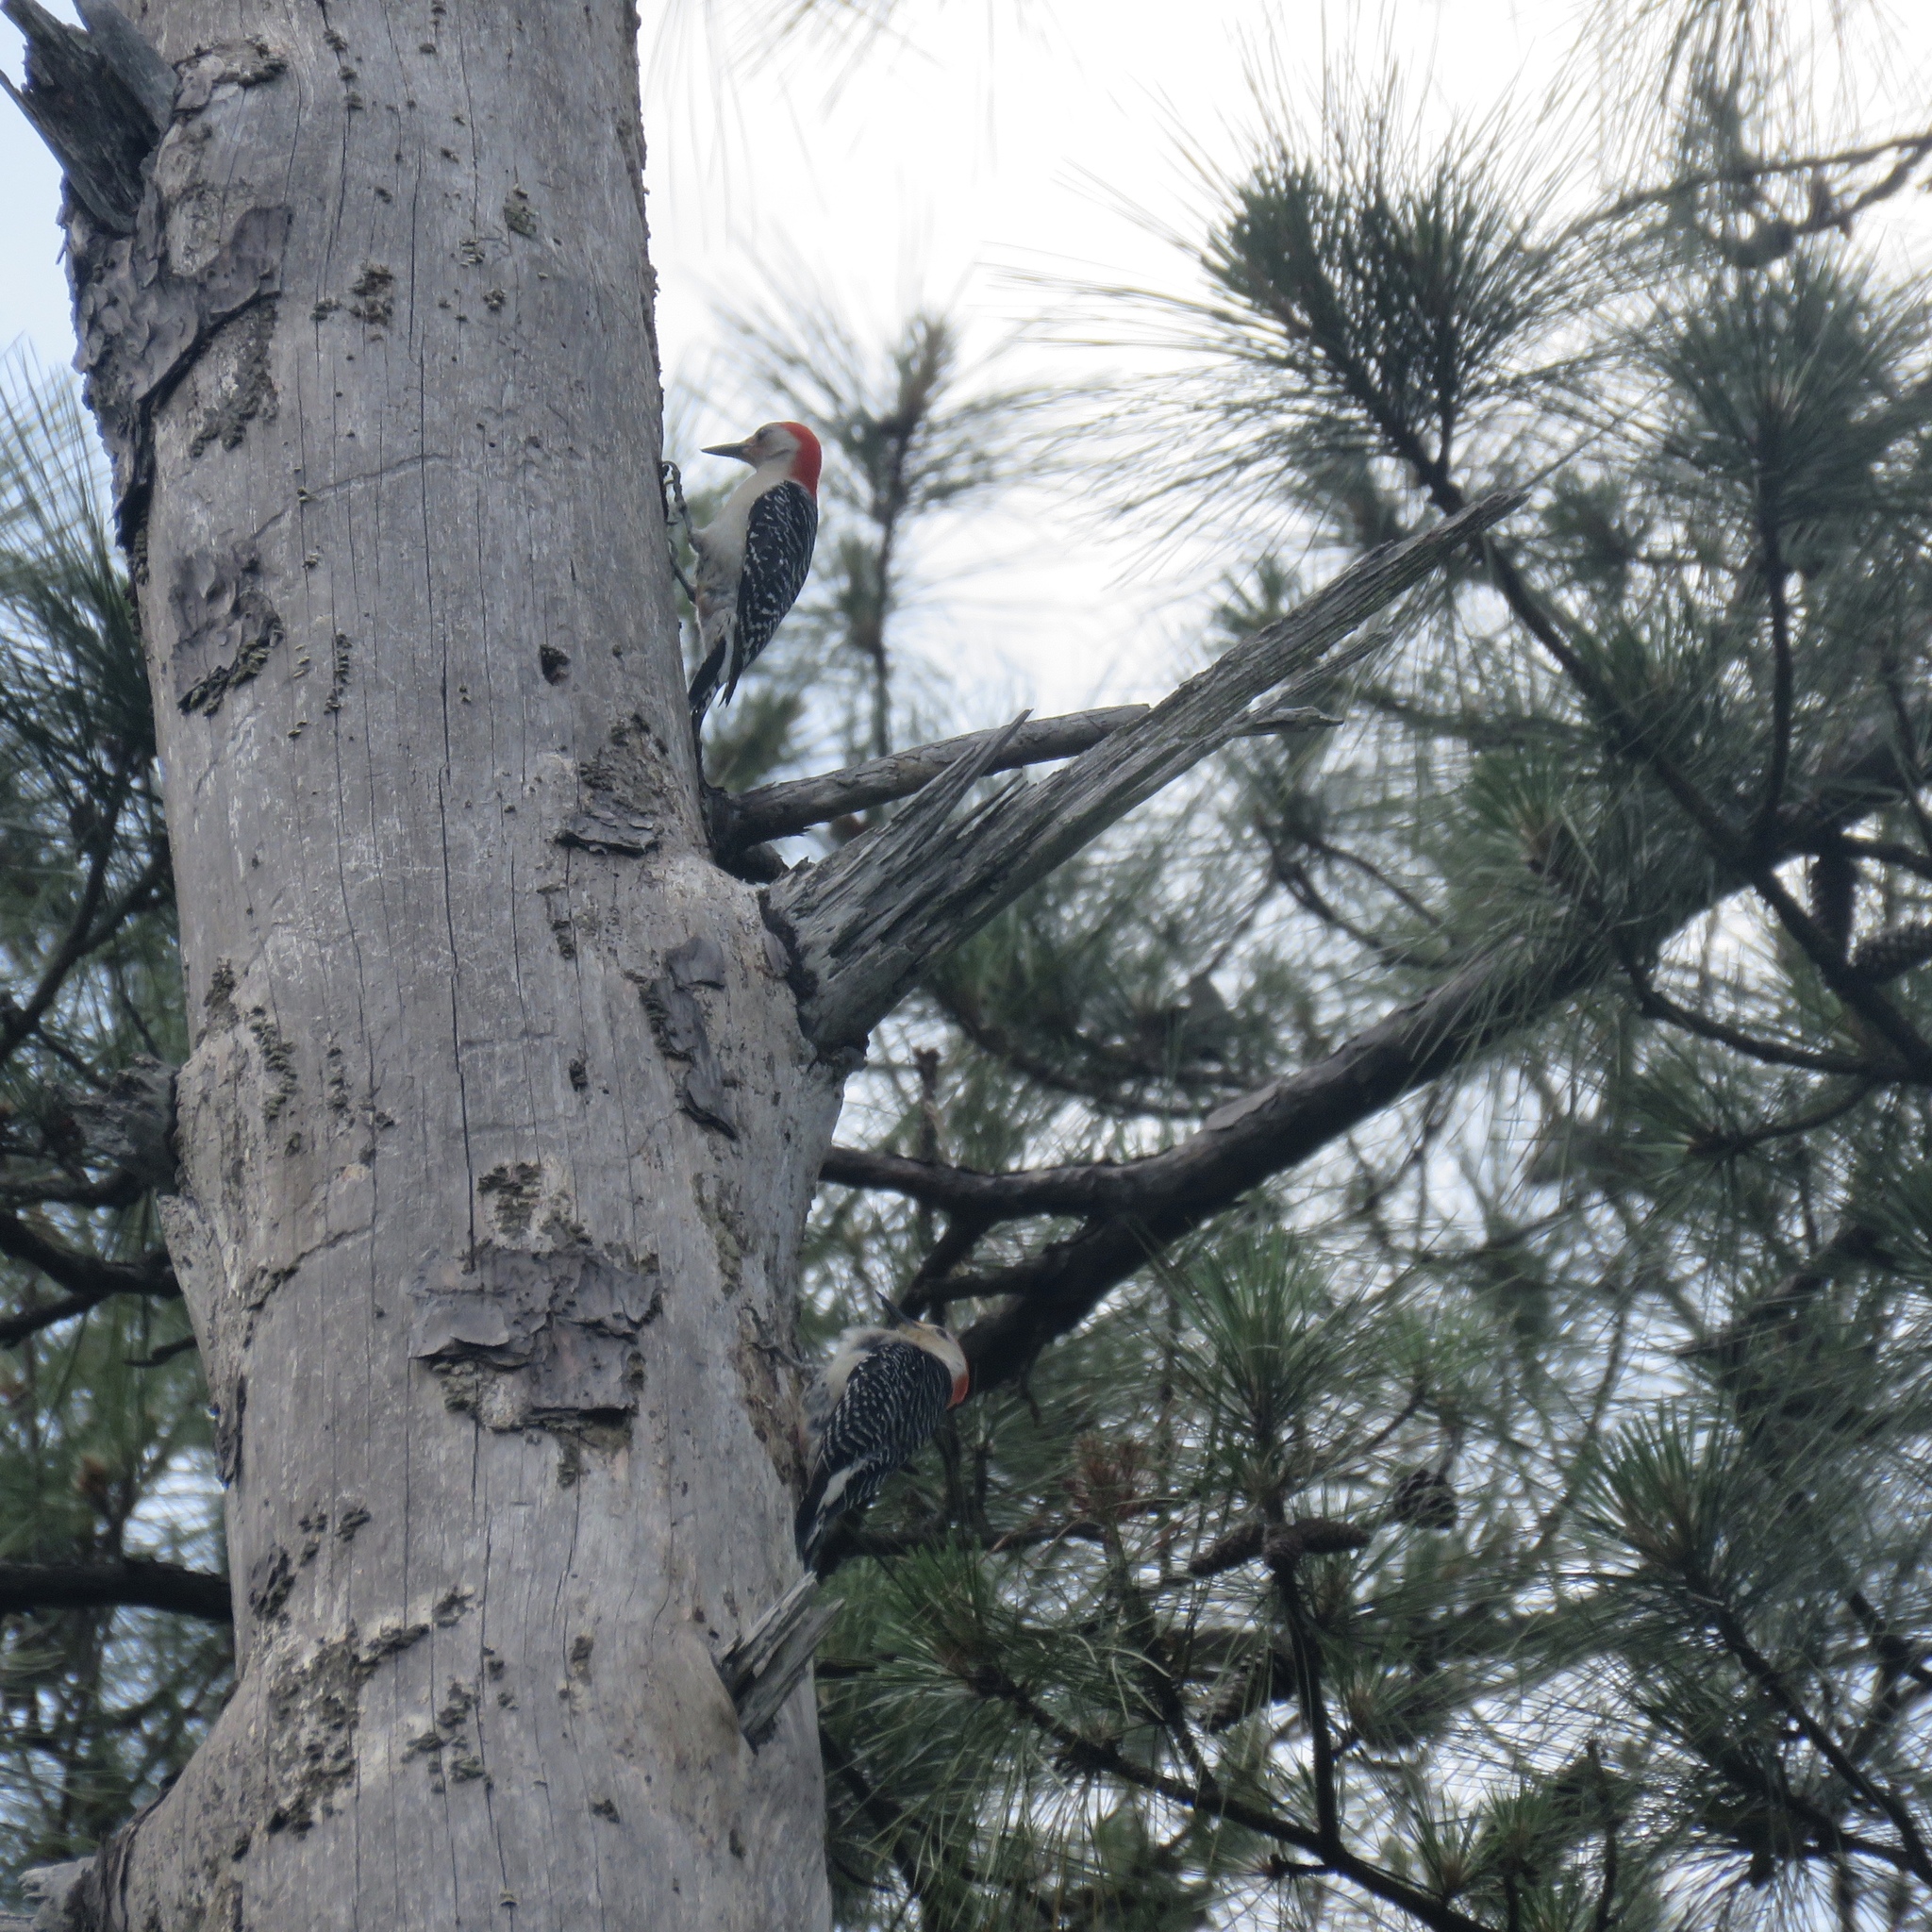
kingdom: Animalia
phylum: Chordata
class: Aves
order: Piciformes
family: Picidae
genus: Melanerpes
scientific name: Melanerpes carolinus
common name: Red-bellied woodpecker
